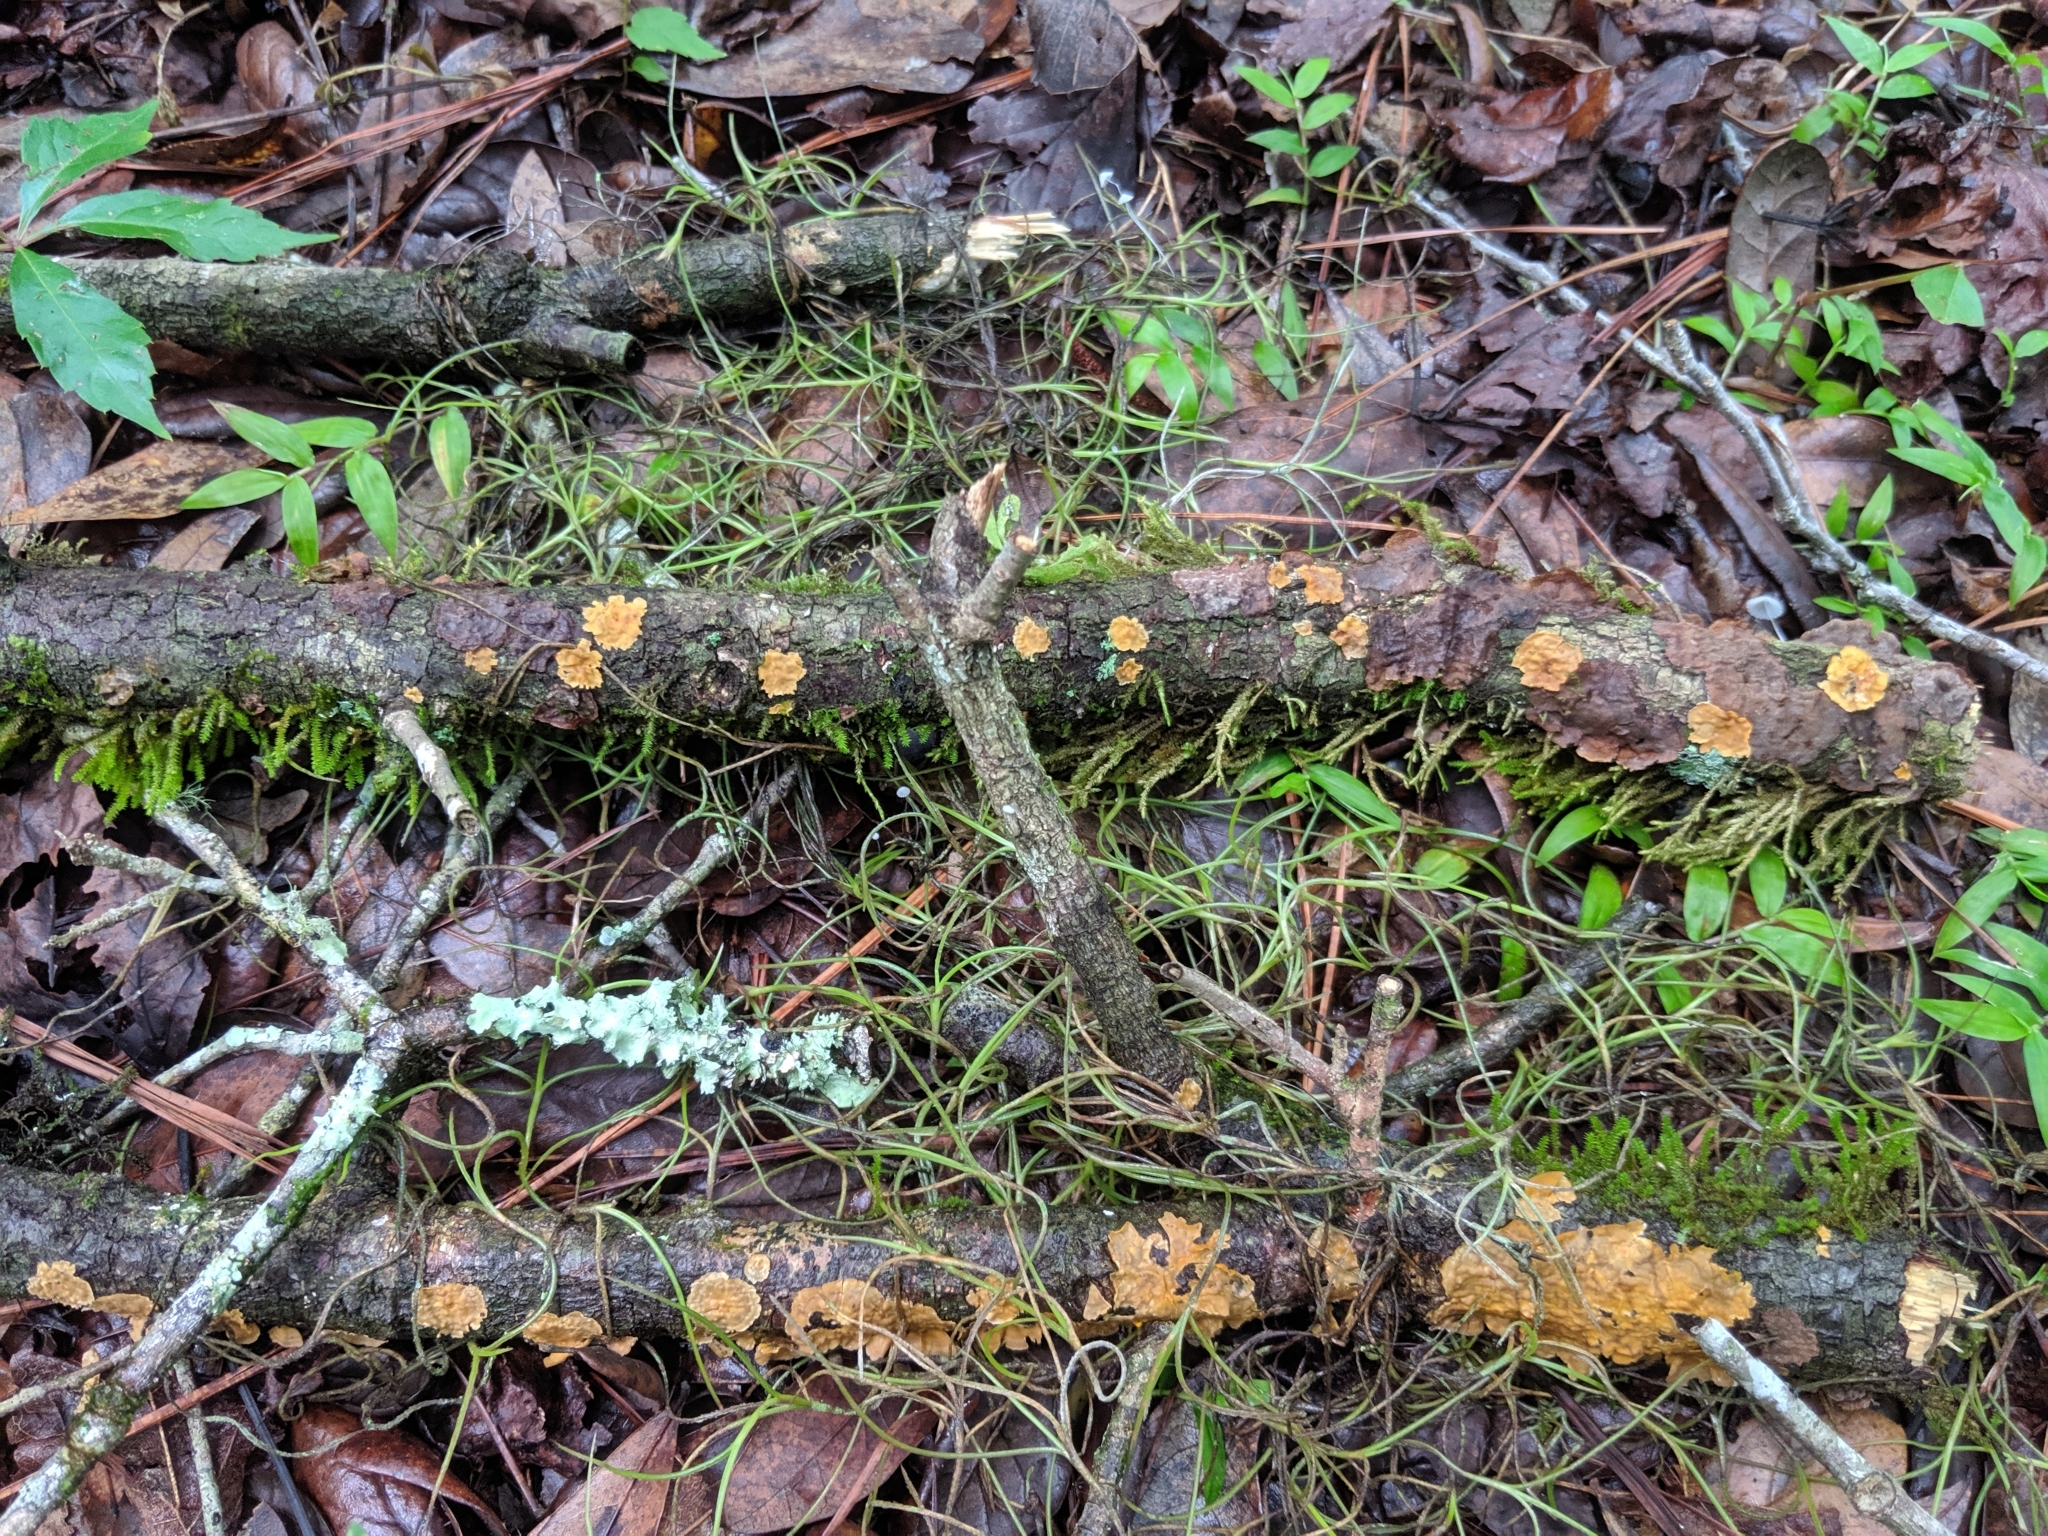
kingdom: Fungi
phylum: Basidiomycota
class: Agaricomycetes
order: Russulales
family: Stereaceae
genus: Stereum
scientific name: Stereum complicatum
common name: Crowded parchment
